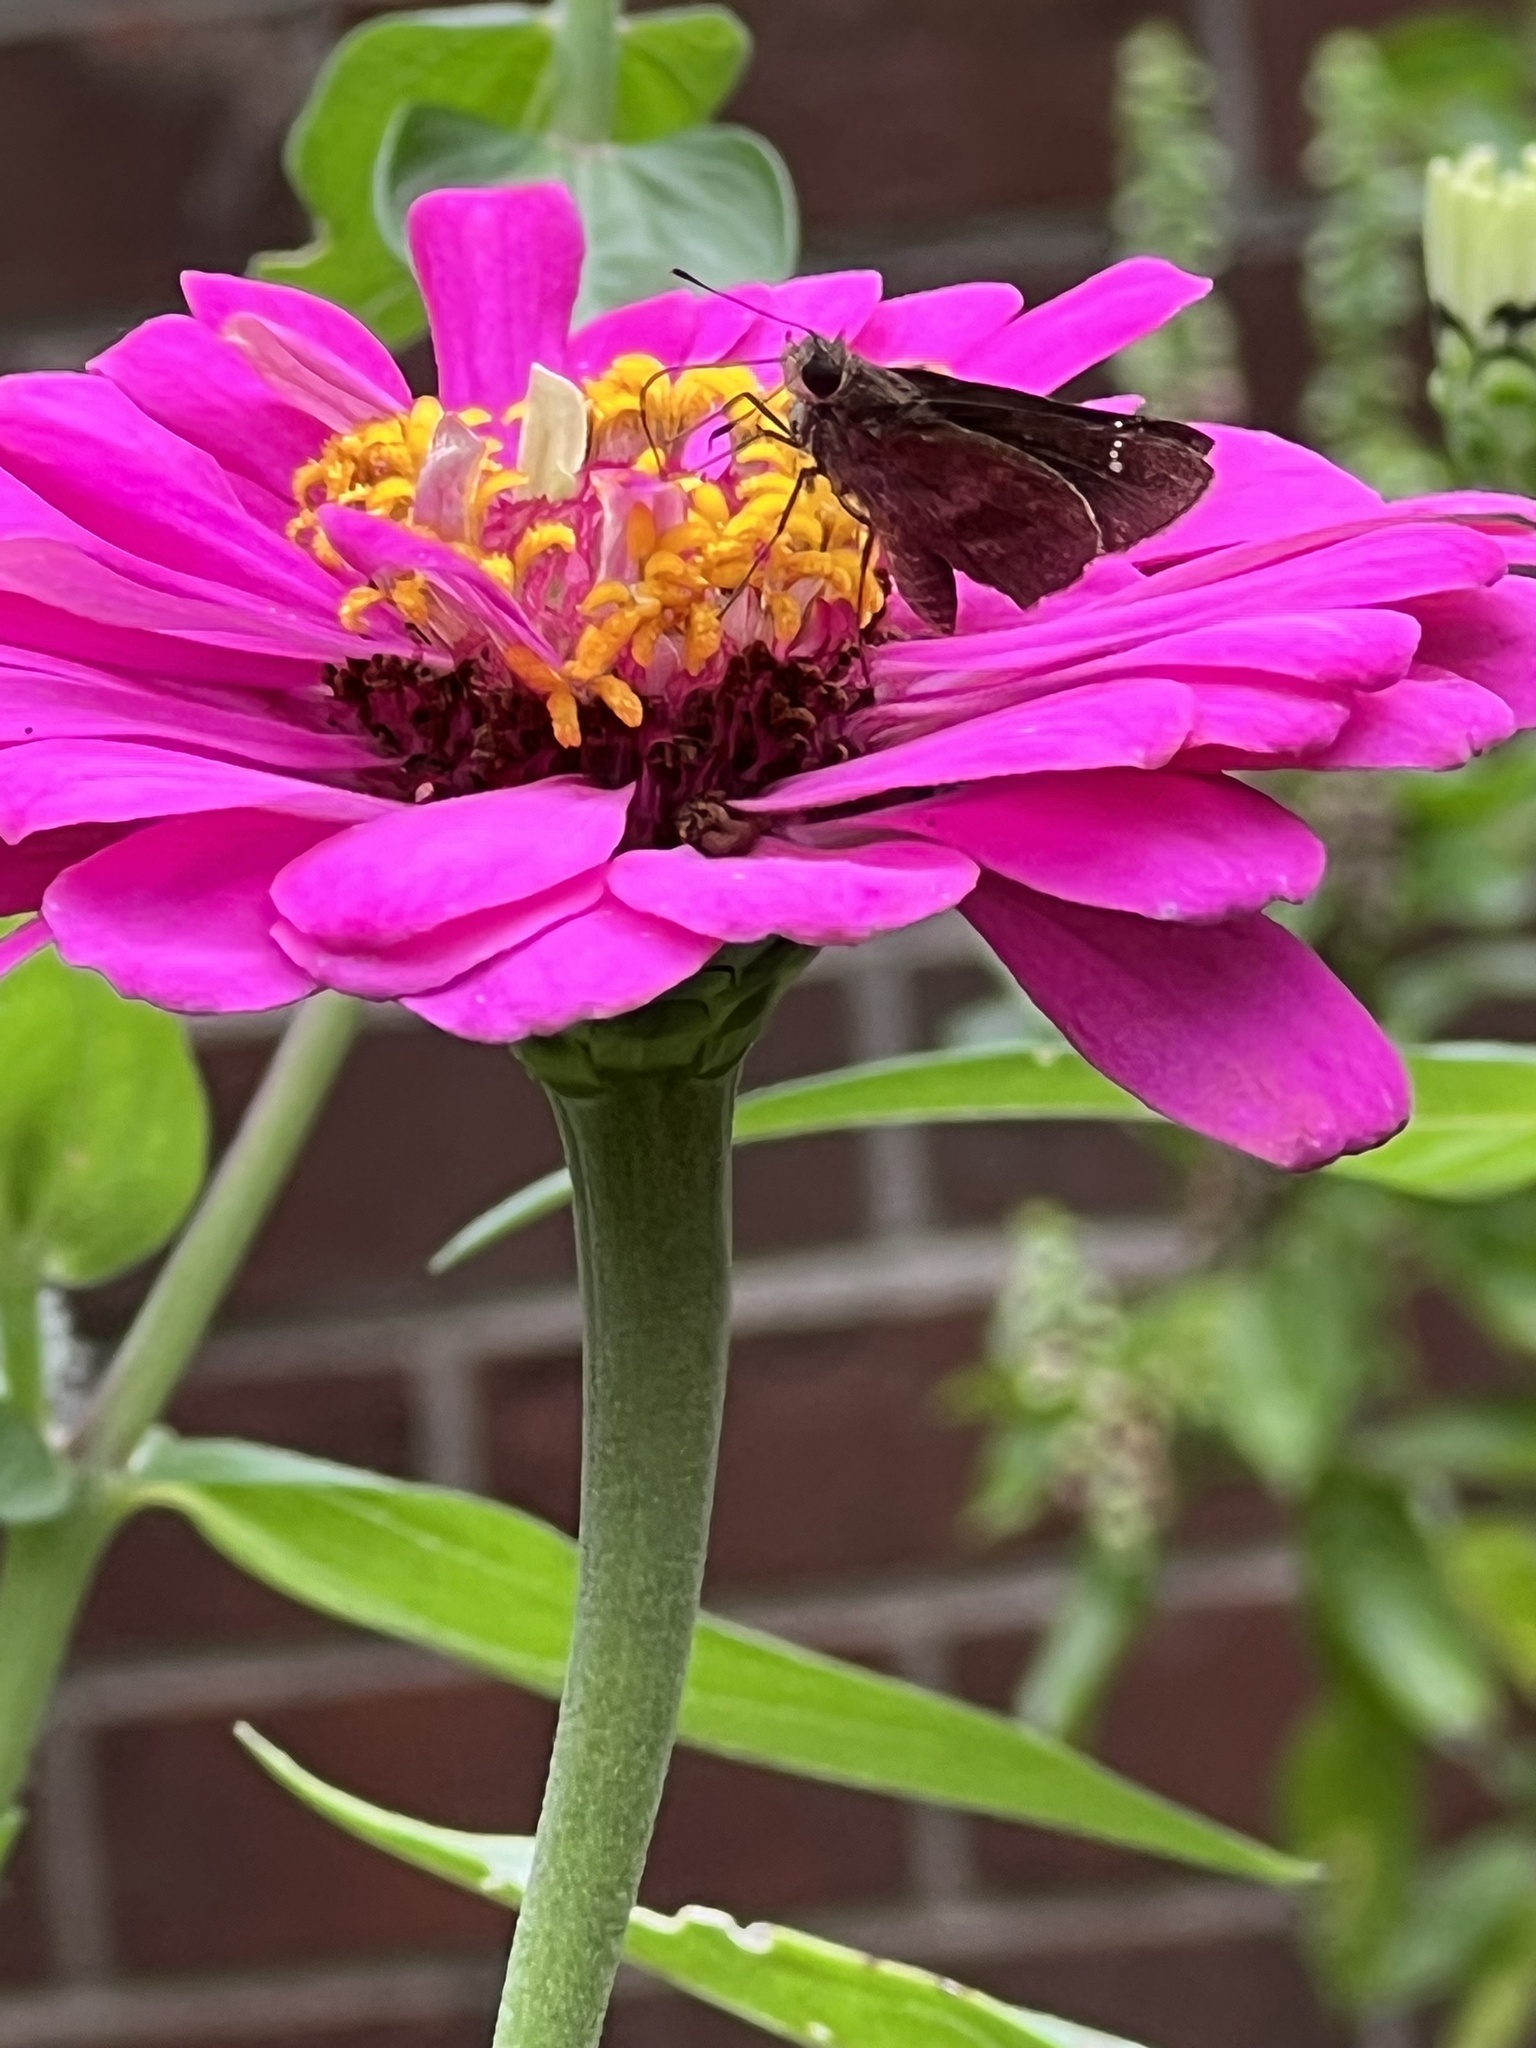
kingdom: Animalia
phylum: Arthropoda
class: Insecta
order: Lepidoptera
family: Hesperiidae
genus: Lerema
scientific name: Lerema accius
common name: Clouded skipper
